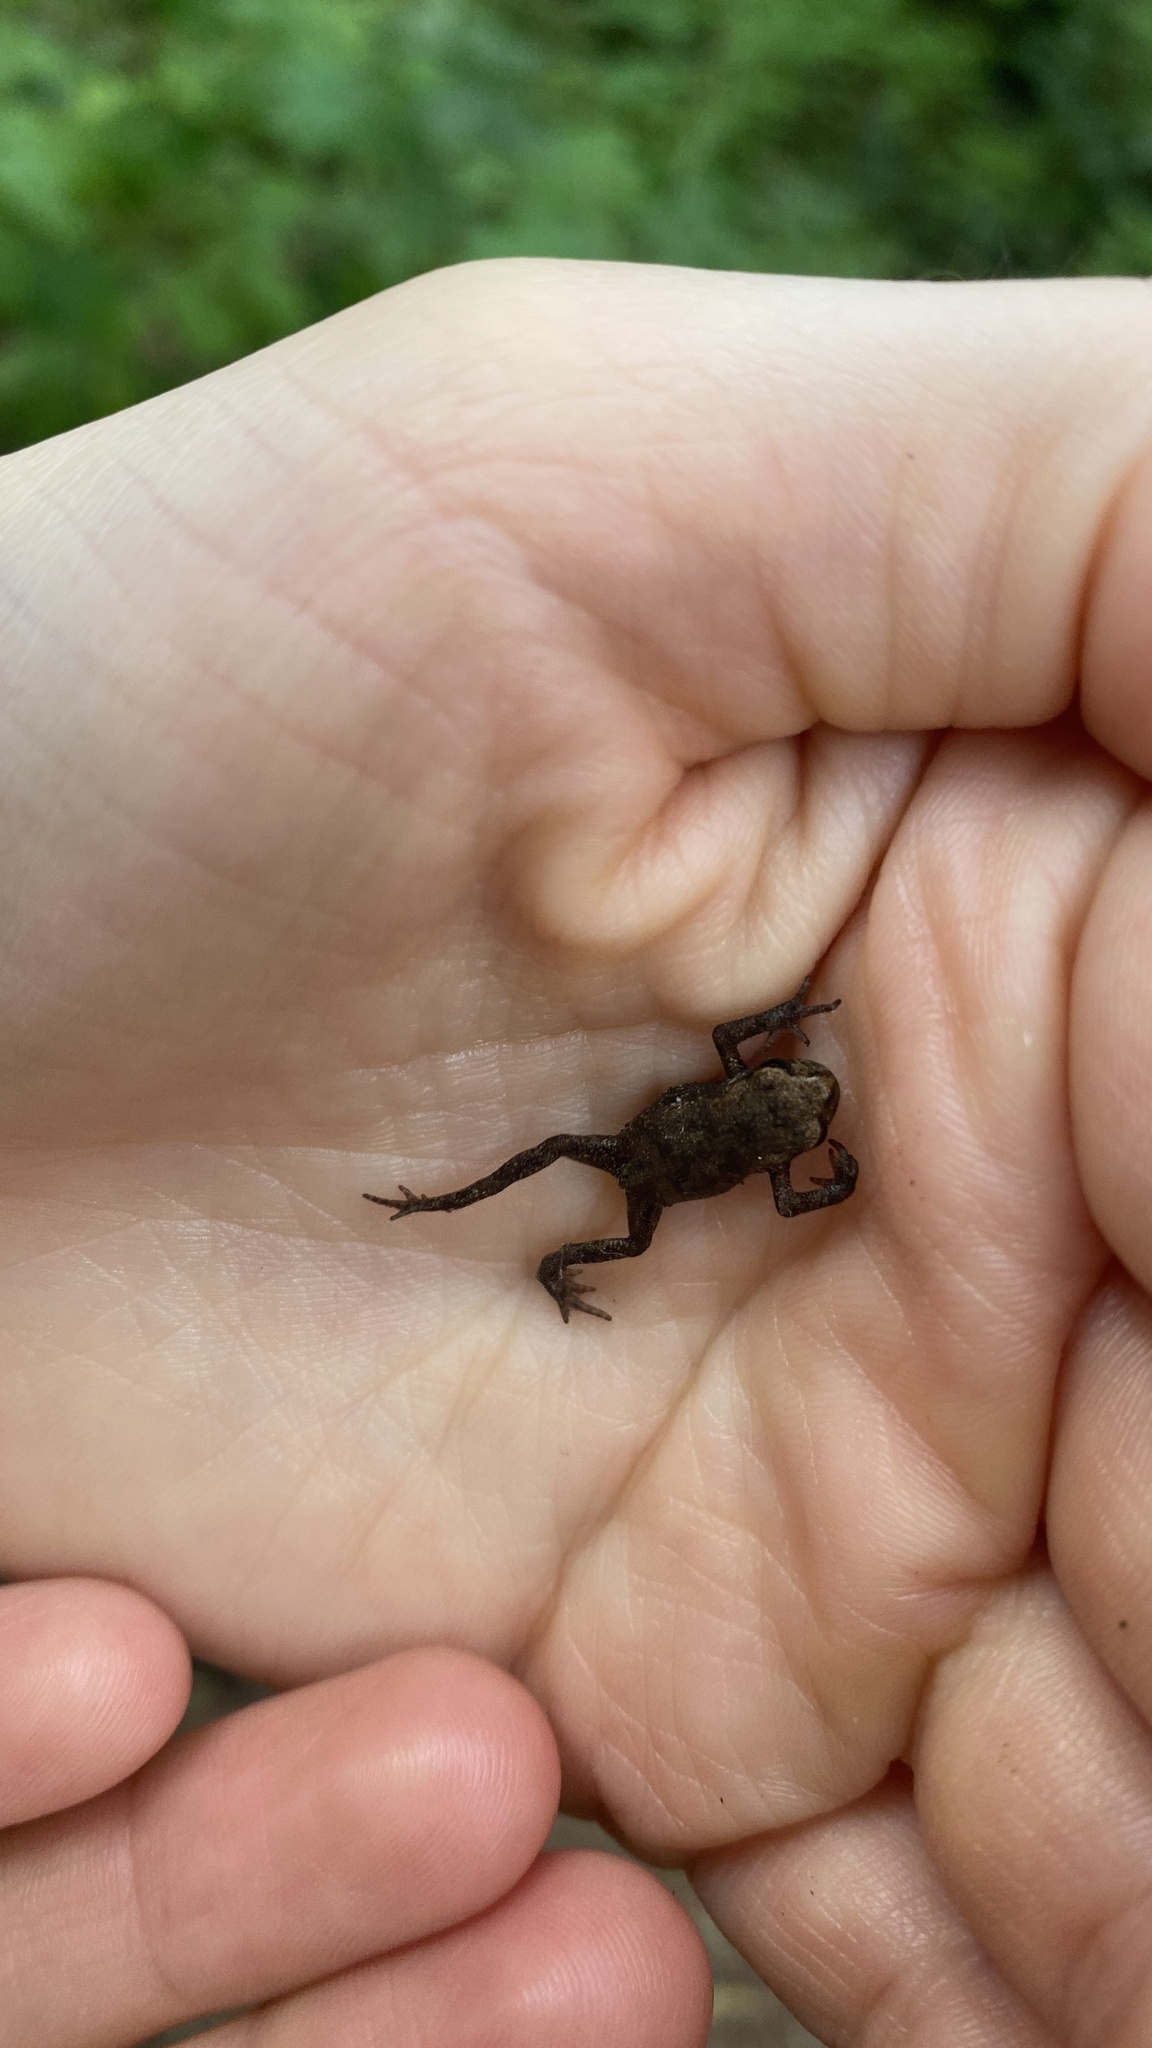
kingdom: Animalia
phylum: Chordata
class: Amphibia
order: Anura
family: Bufonidae
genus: Bufo
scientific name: Bufo bufo
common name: Common toad
